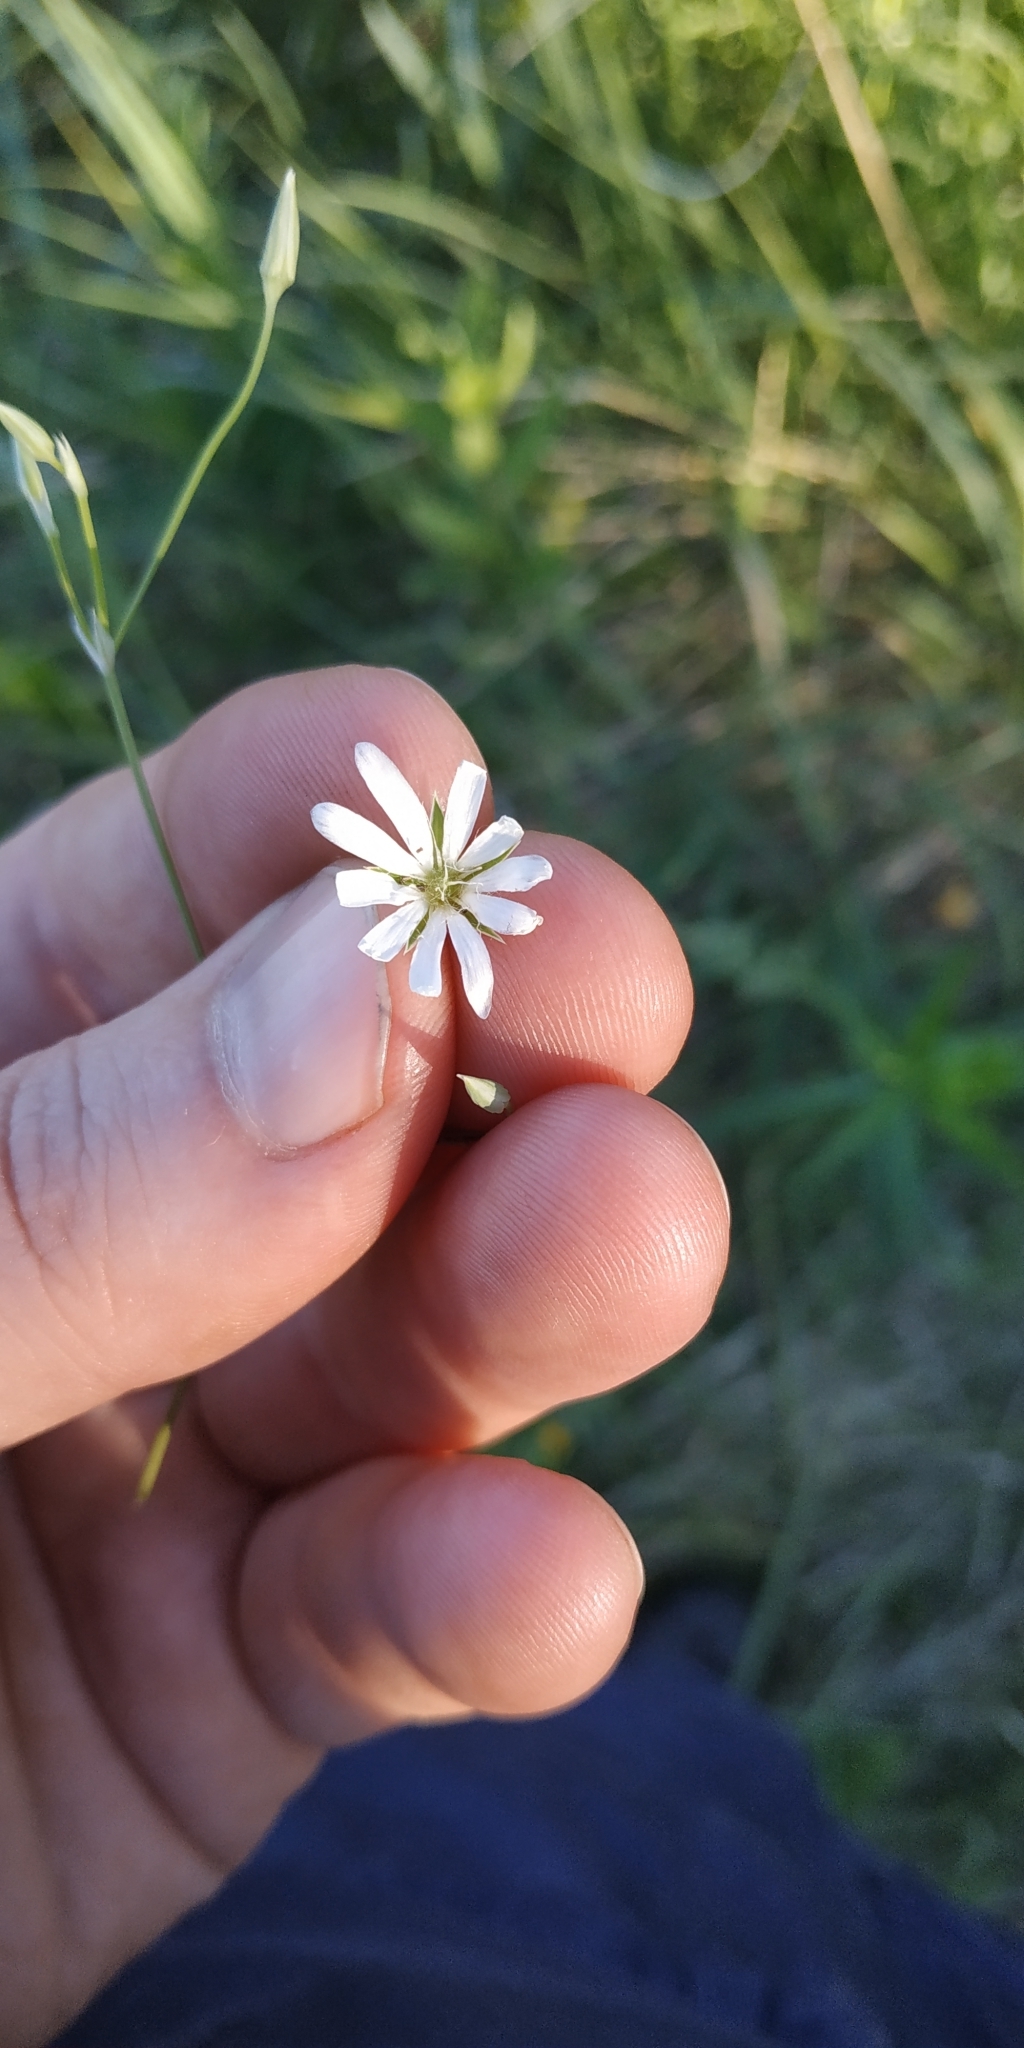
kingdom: Plantae
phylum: Tracheophyta
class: Magnoliopsida
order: Caryophyllales
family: Caryophyllaceae
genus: Stellaria
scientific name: Stellaria palustris
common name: Marsh stitchwort
